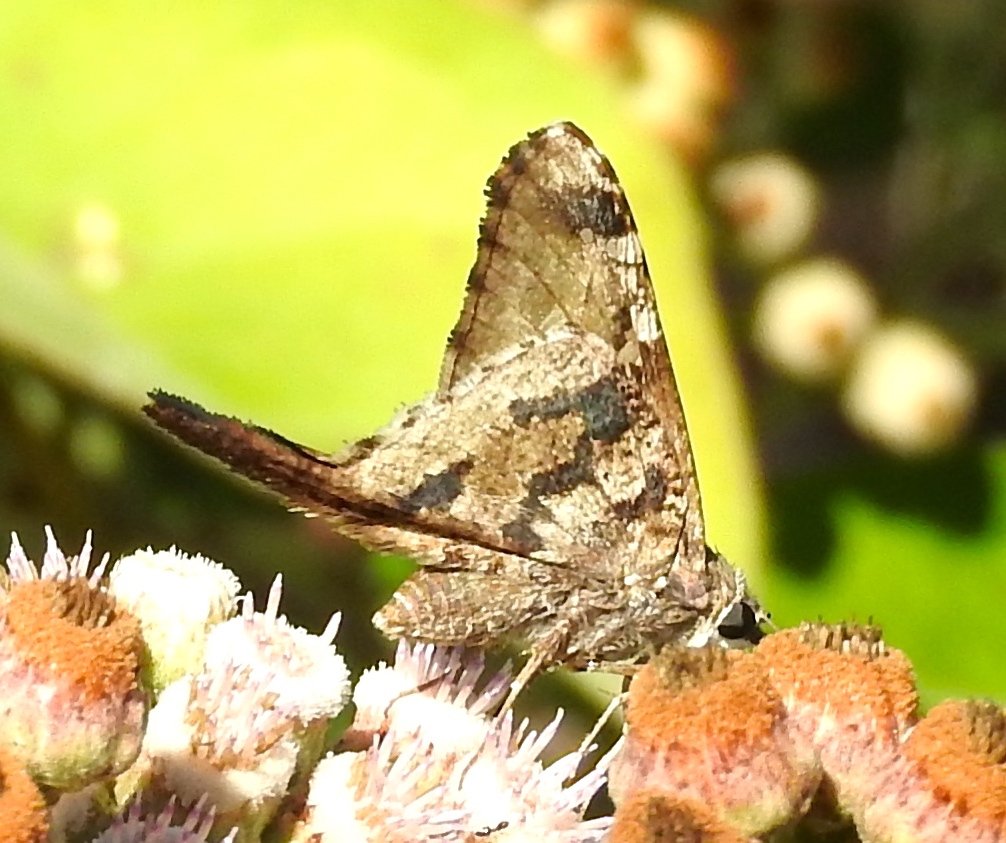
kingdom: Animalia
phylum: Arthropoda
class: Insecta
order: Lepidoptera
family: Hesperiidae
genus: Typhedanus
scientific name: Typhedanus undulatus
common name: Mottled longtail
